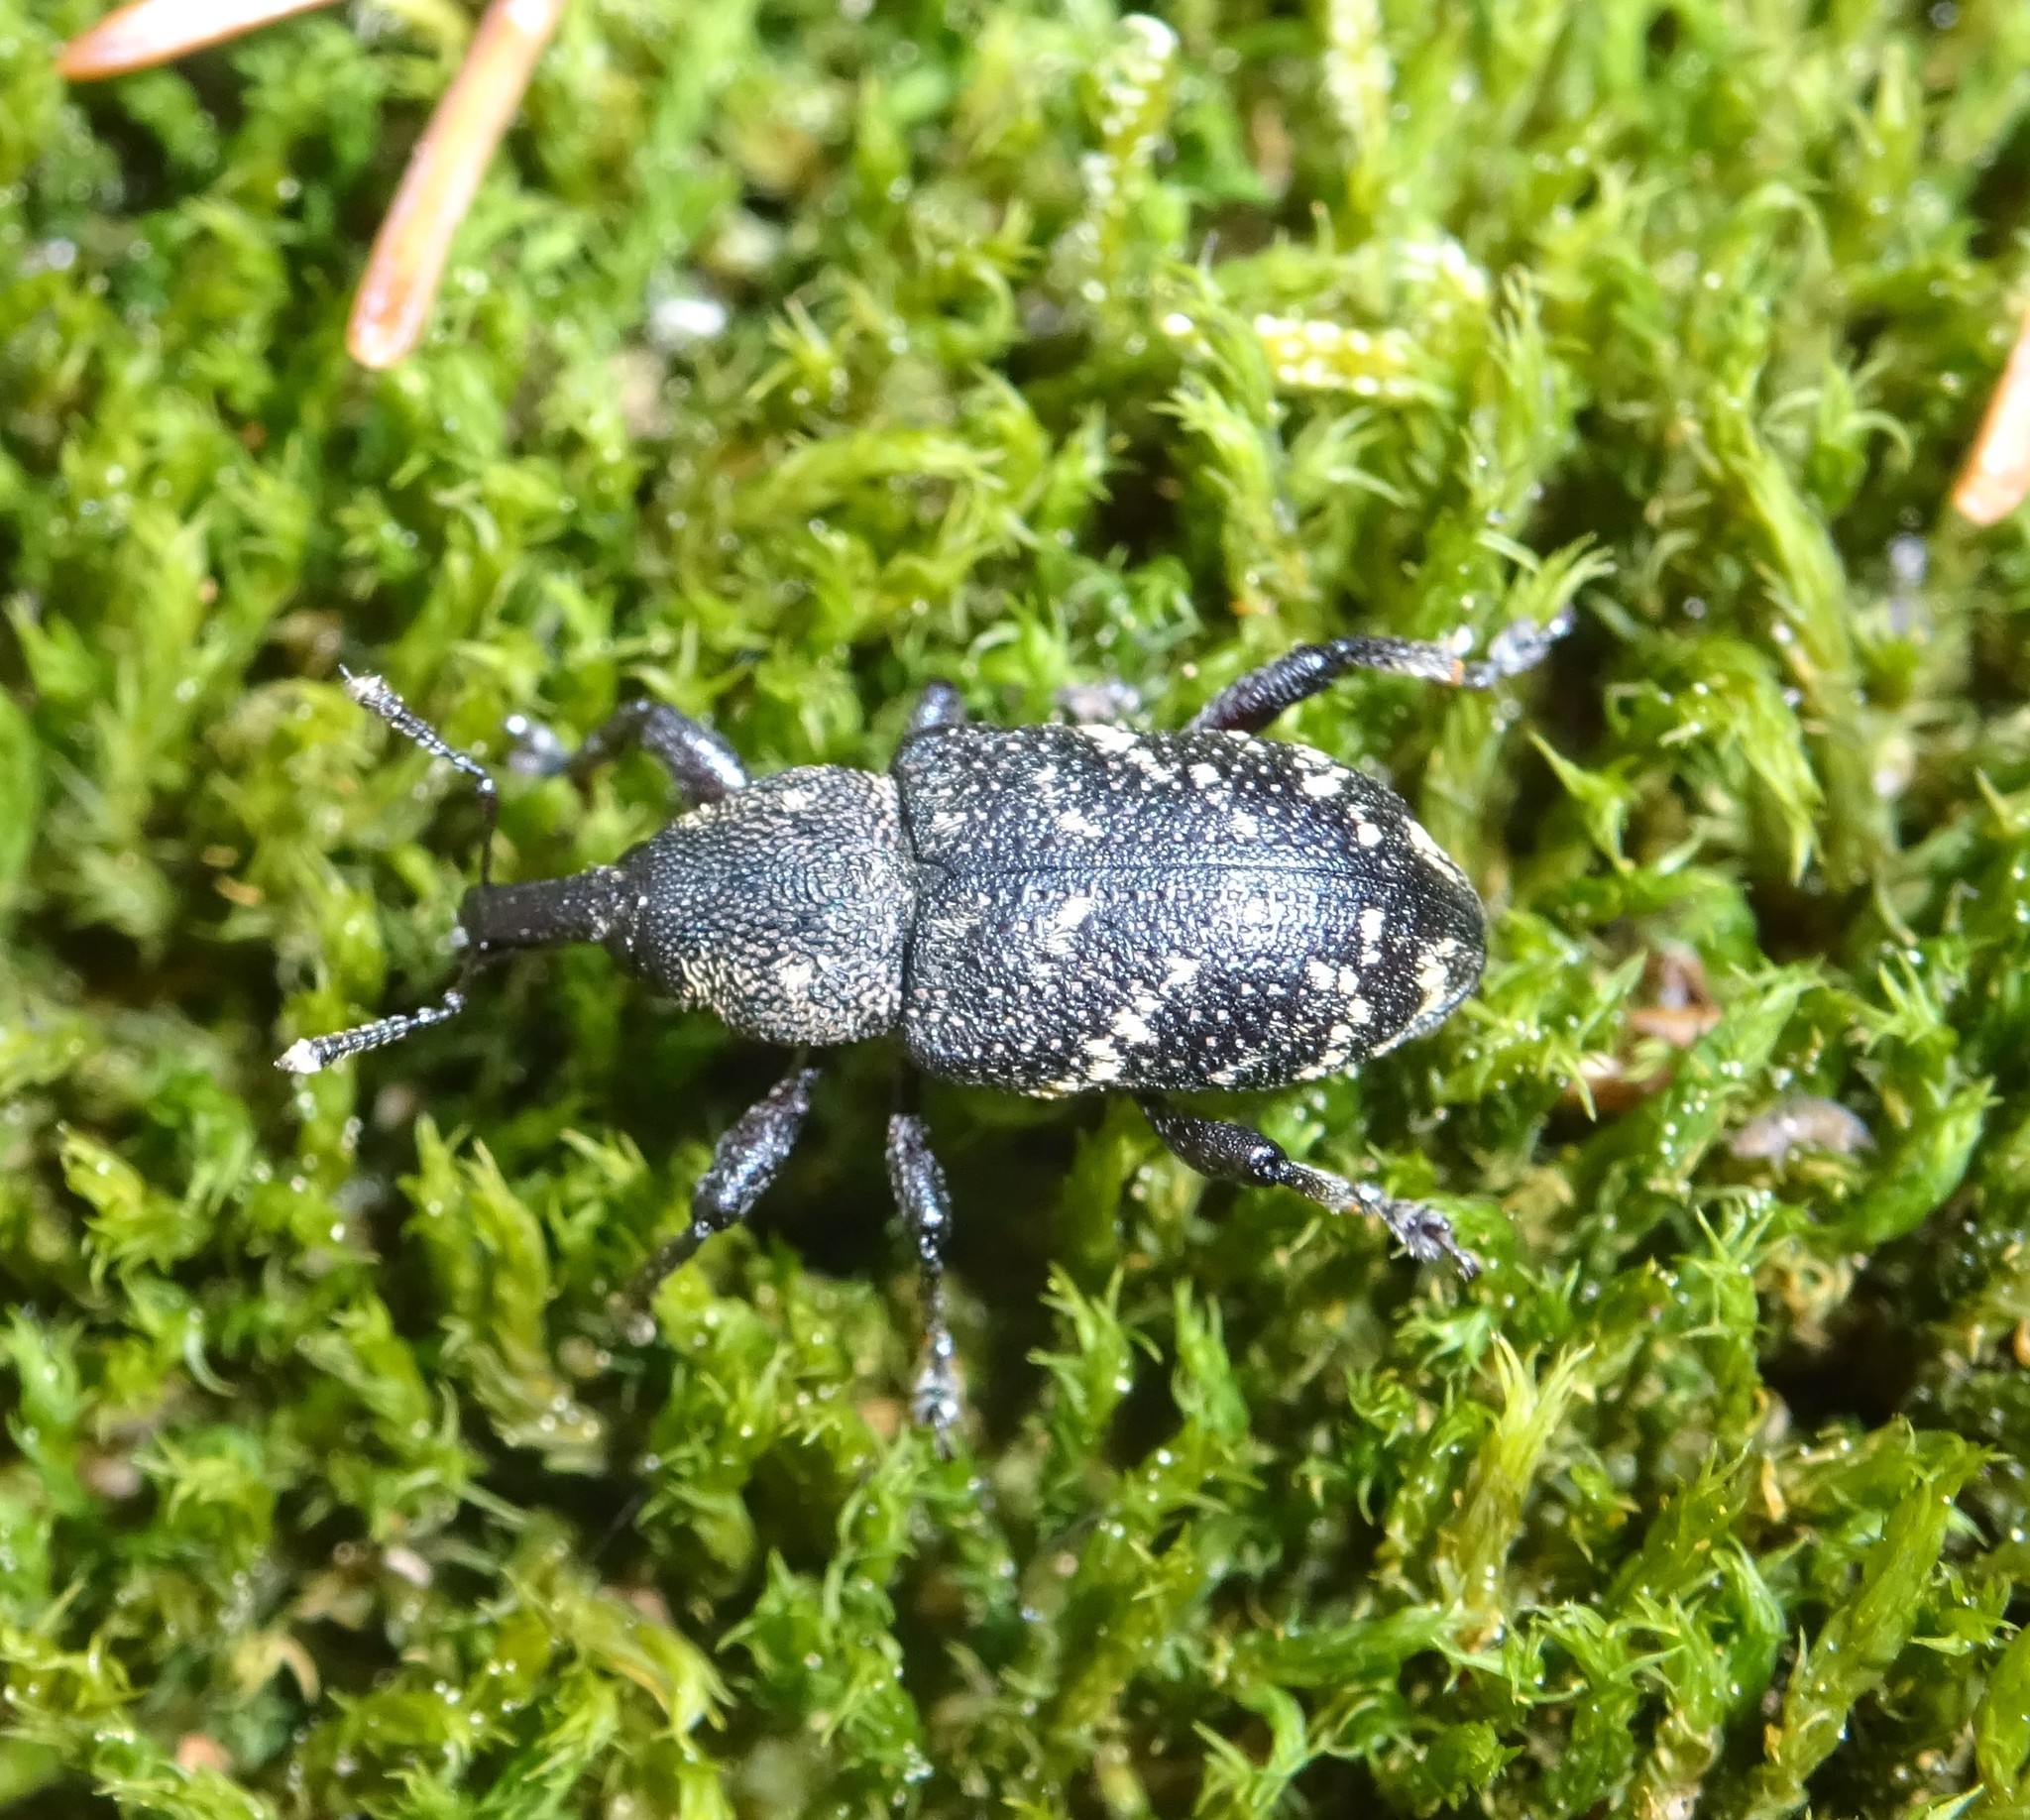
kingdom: Animalia
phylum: Arthropoda
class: Insecta
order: Coleoptera
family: Curculionidae
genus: Hylobius
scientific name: Hylobius abietis
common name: Large pine weevil
